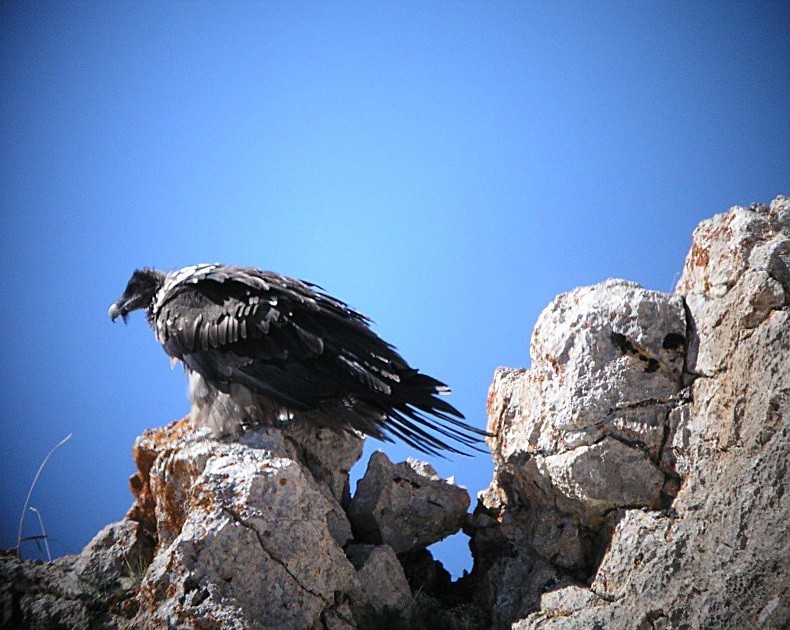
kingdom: Animalia
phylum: Chordata
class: Aves
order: Accipitriformes
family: Accipitridae
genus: Gypaetus
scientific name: Gypaetus barbatus
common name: Bearded vulture
